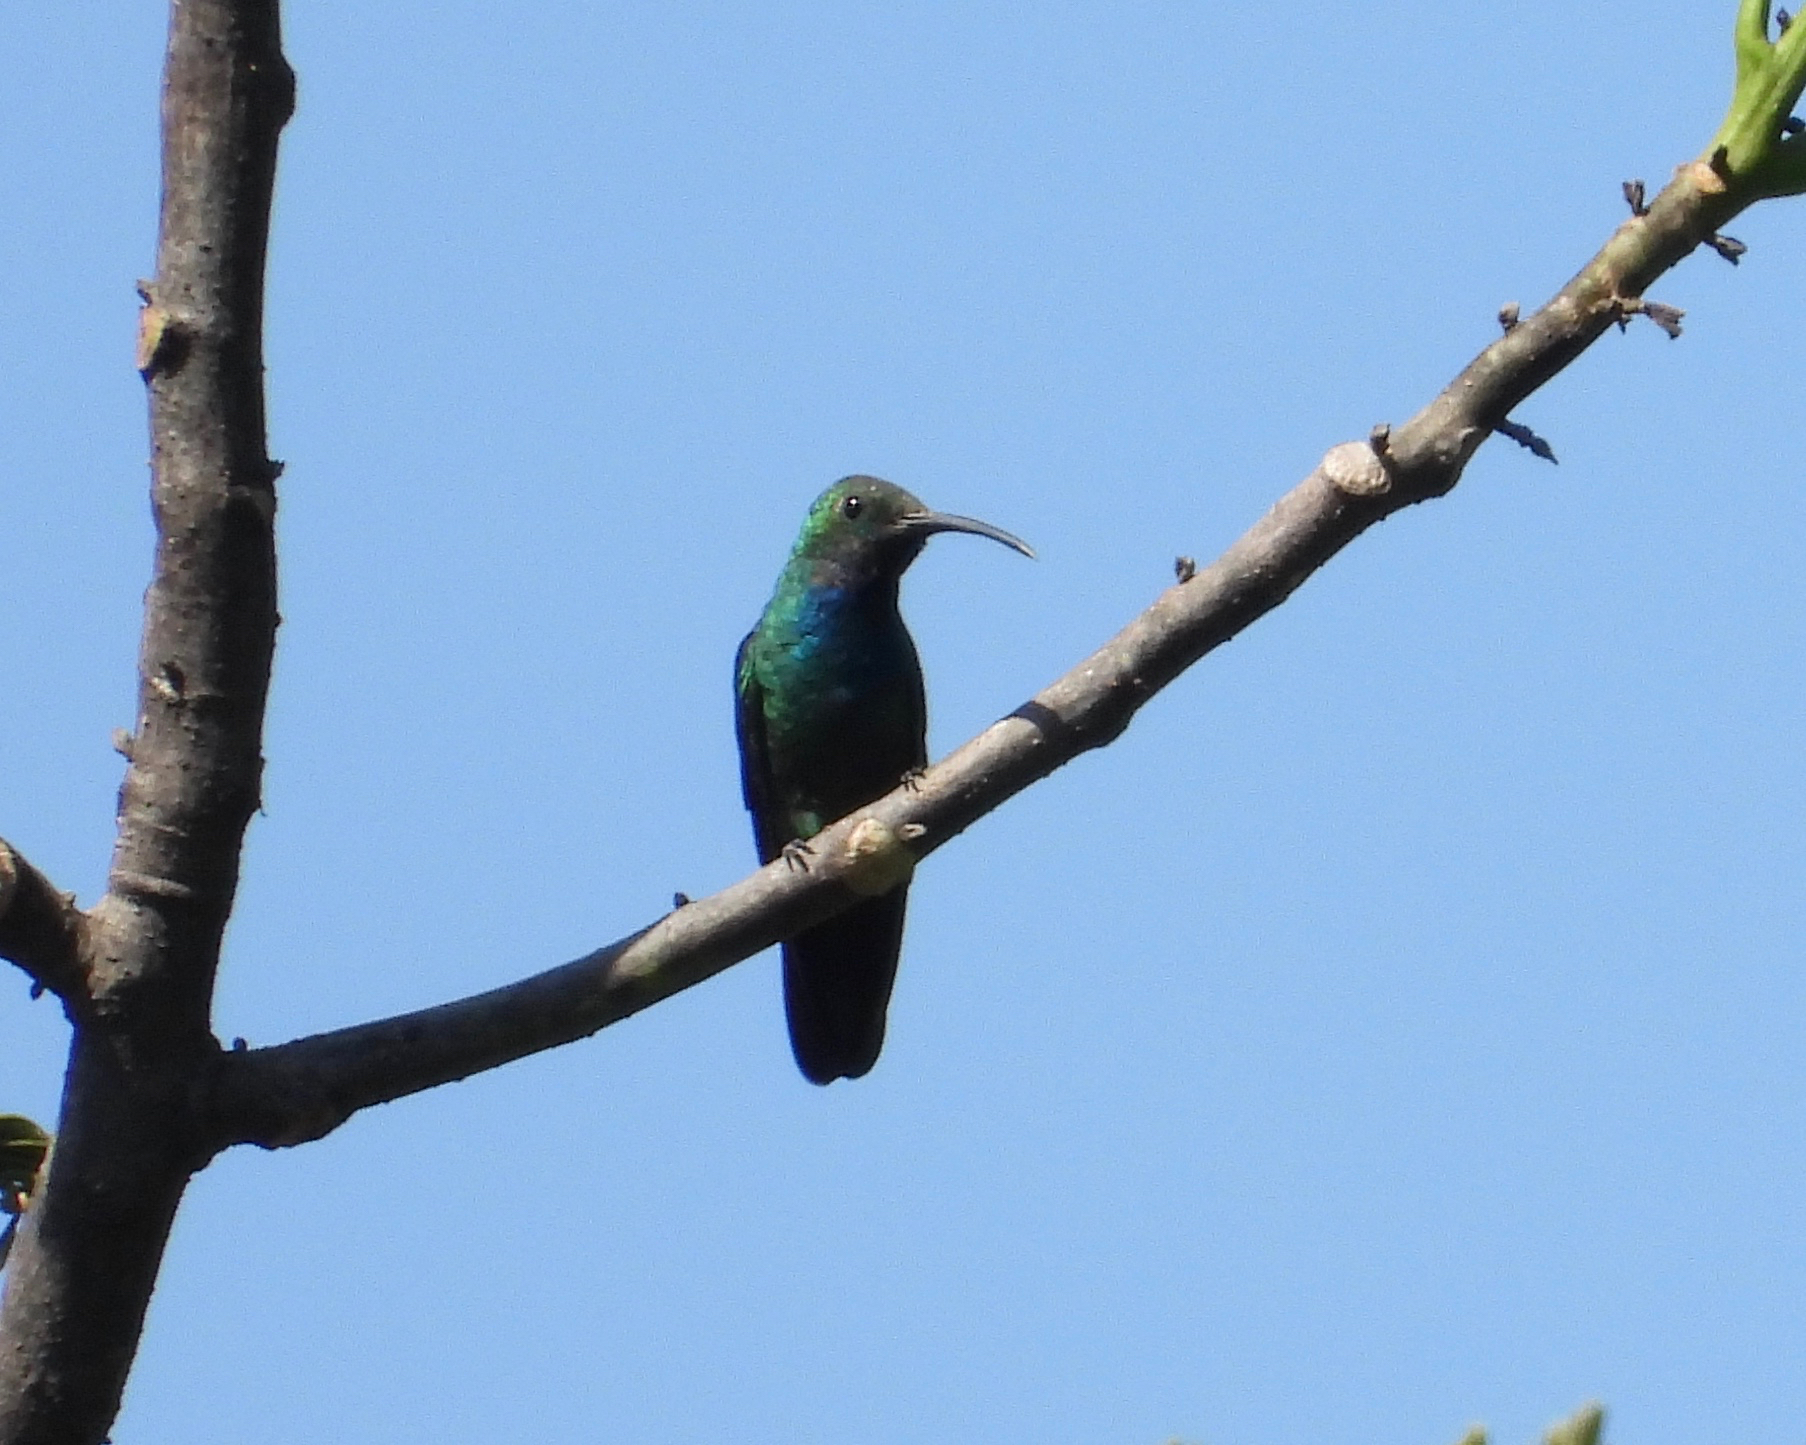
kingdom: Animalia
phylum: Chordata
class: Aves
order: Apodiformes
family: Trochilidae
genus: Anthracothorax
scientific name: Anthracothorax prevostii
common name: Green-breasted mango
